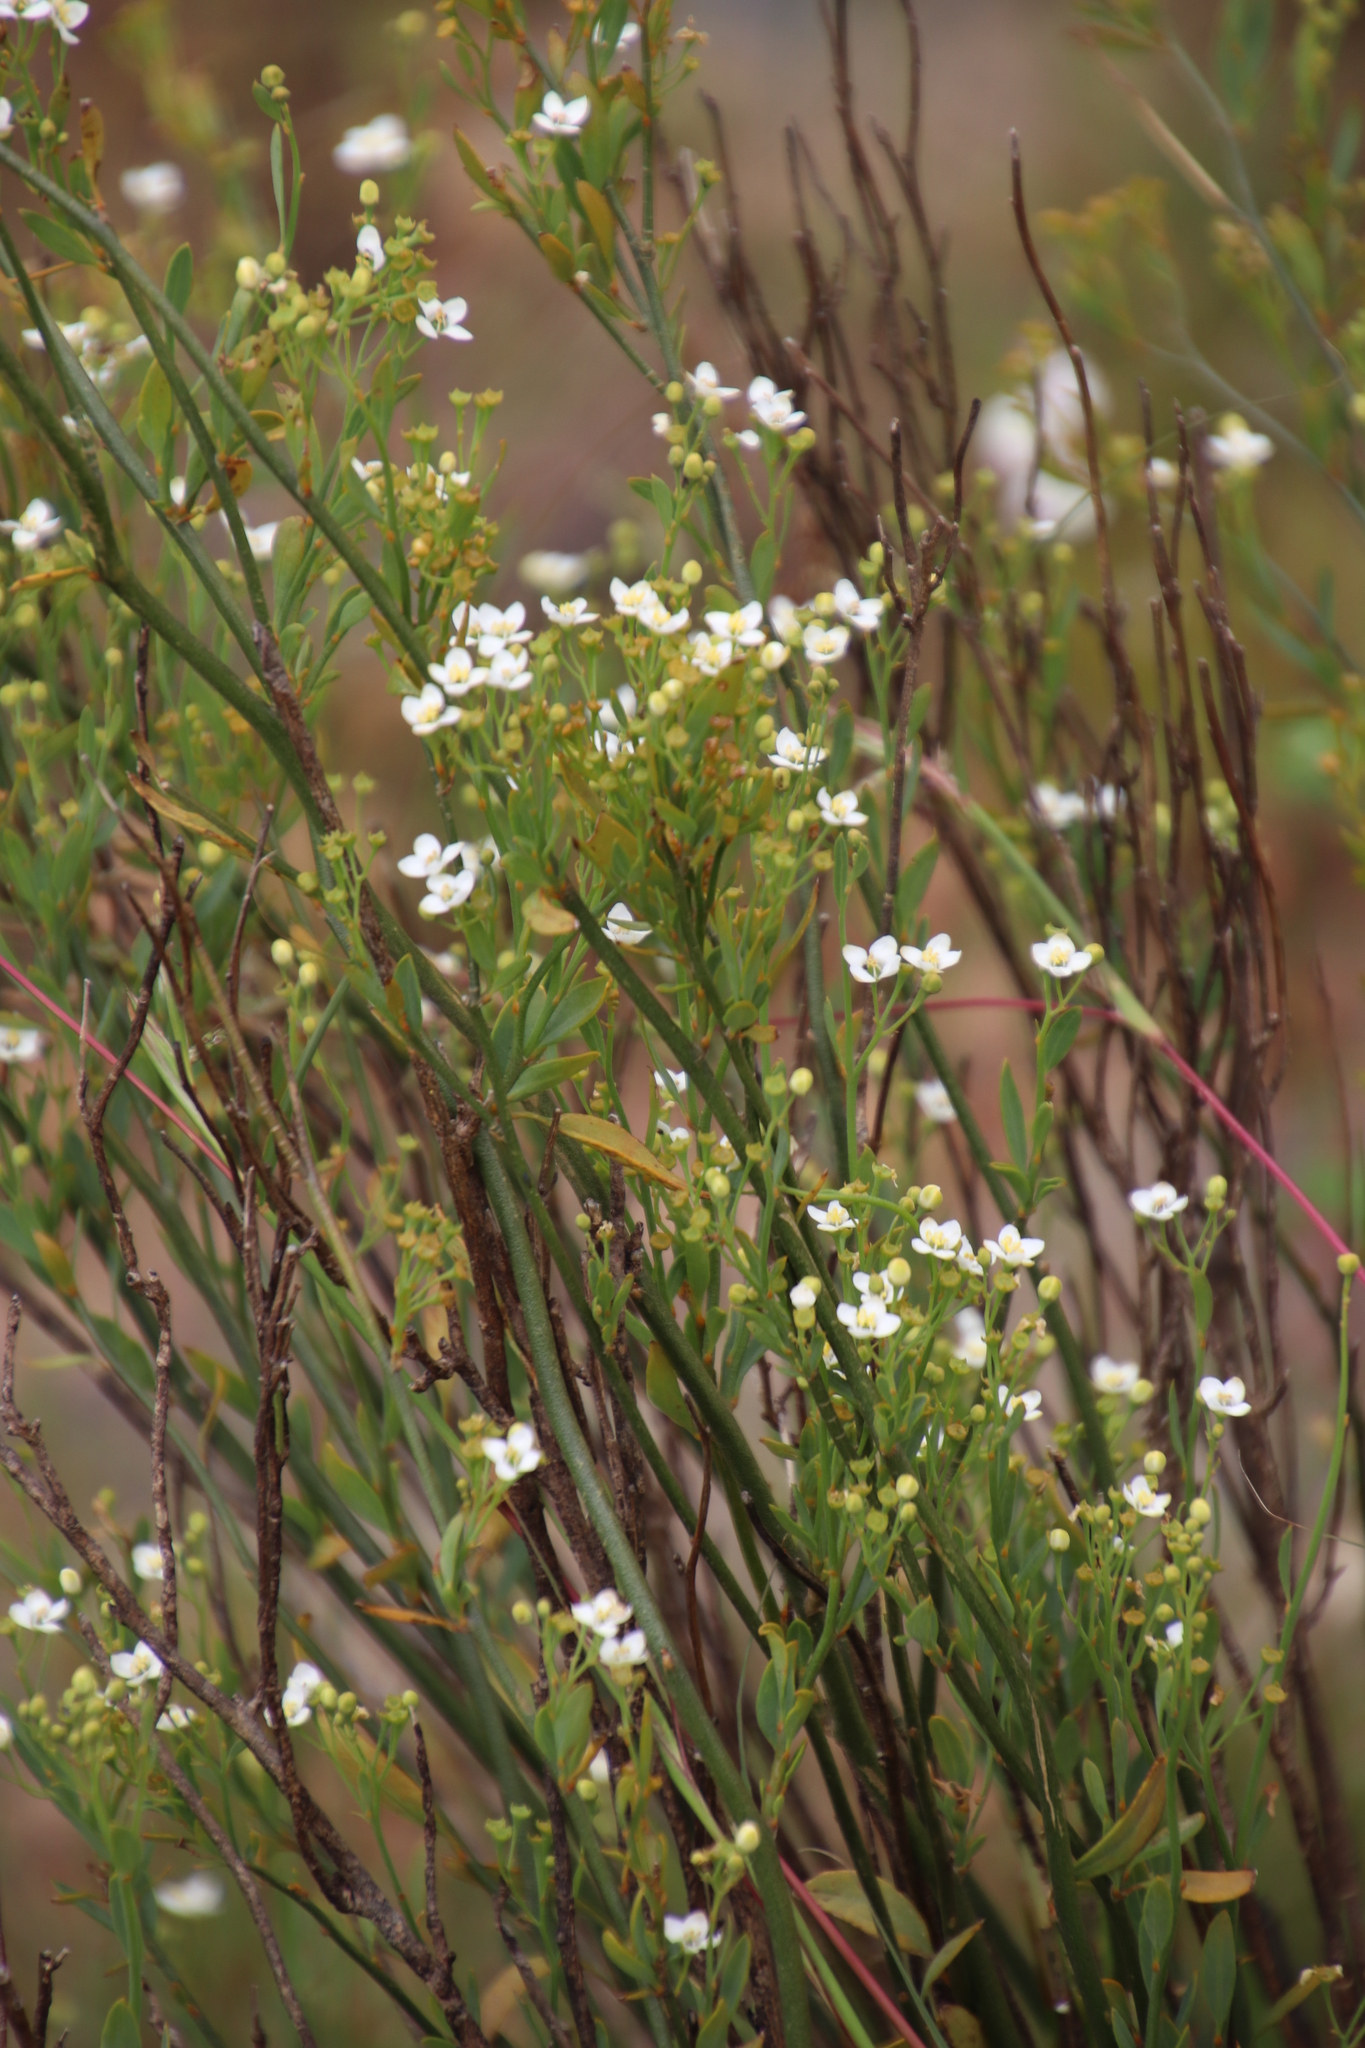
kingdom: Plantae
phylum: Tracheophyta
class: Magnoliopsida
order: Solanales
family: Montiniaceae
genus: Montinia
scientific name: Montinia caryophyllacea
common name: Wild clove-bush
